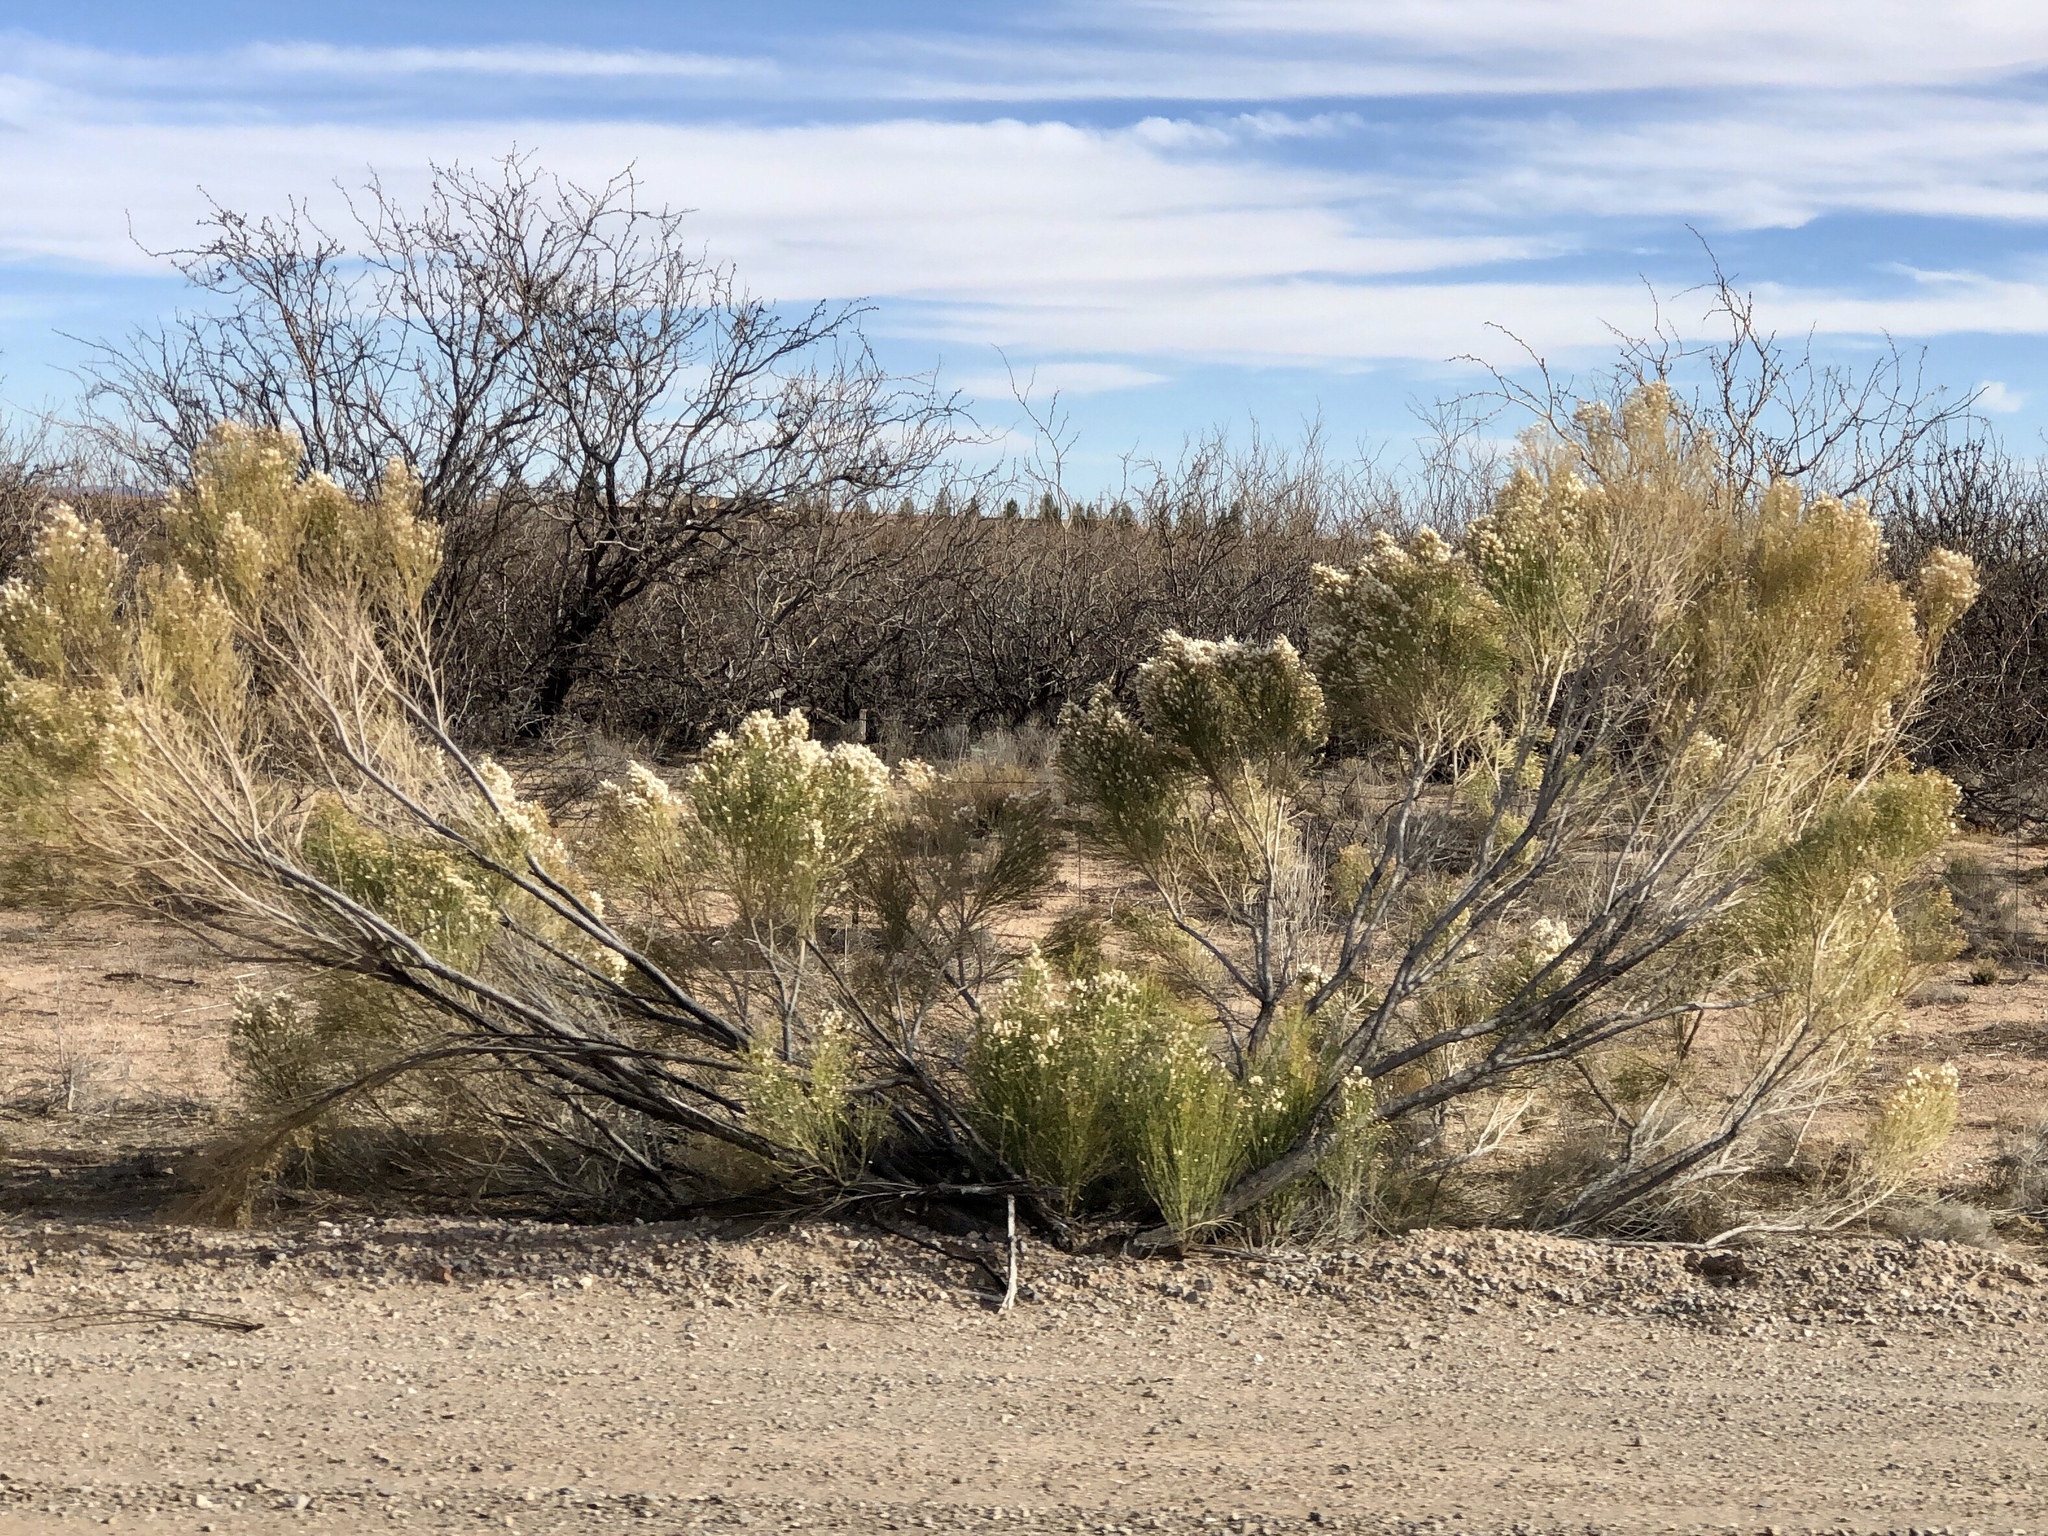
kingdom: Plantae
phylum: Tracheophyta
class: Magnoliopsida
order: Asterales
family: Asteraceae
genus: Baccharis
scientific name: Baccharis sarothroides
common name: Desert-broom
